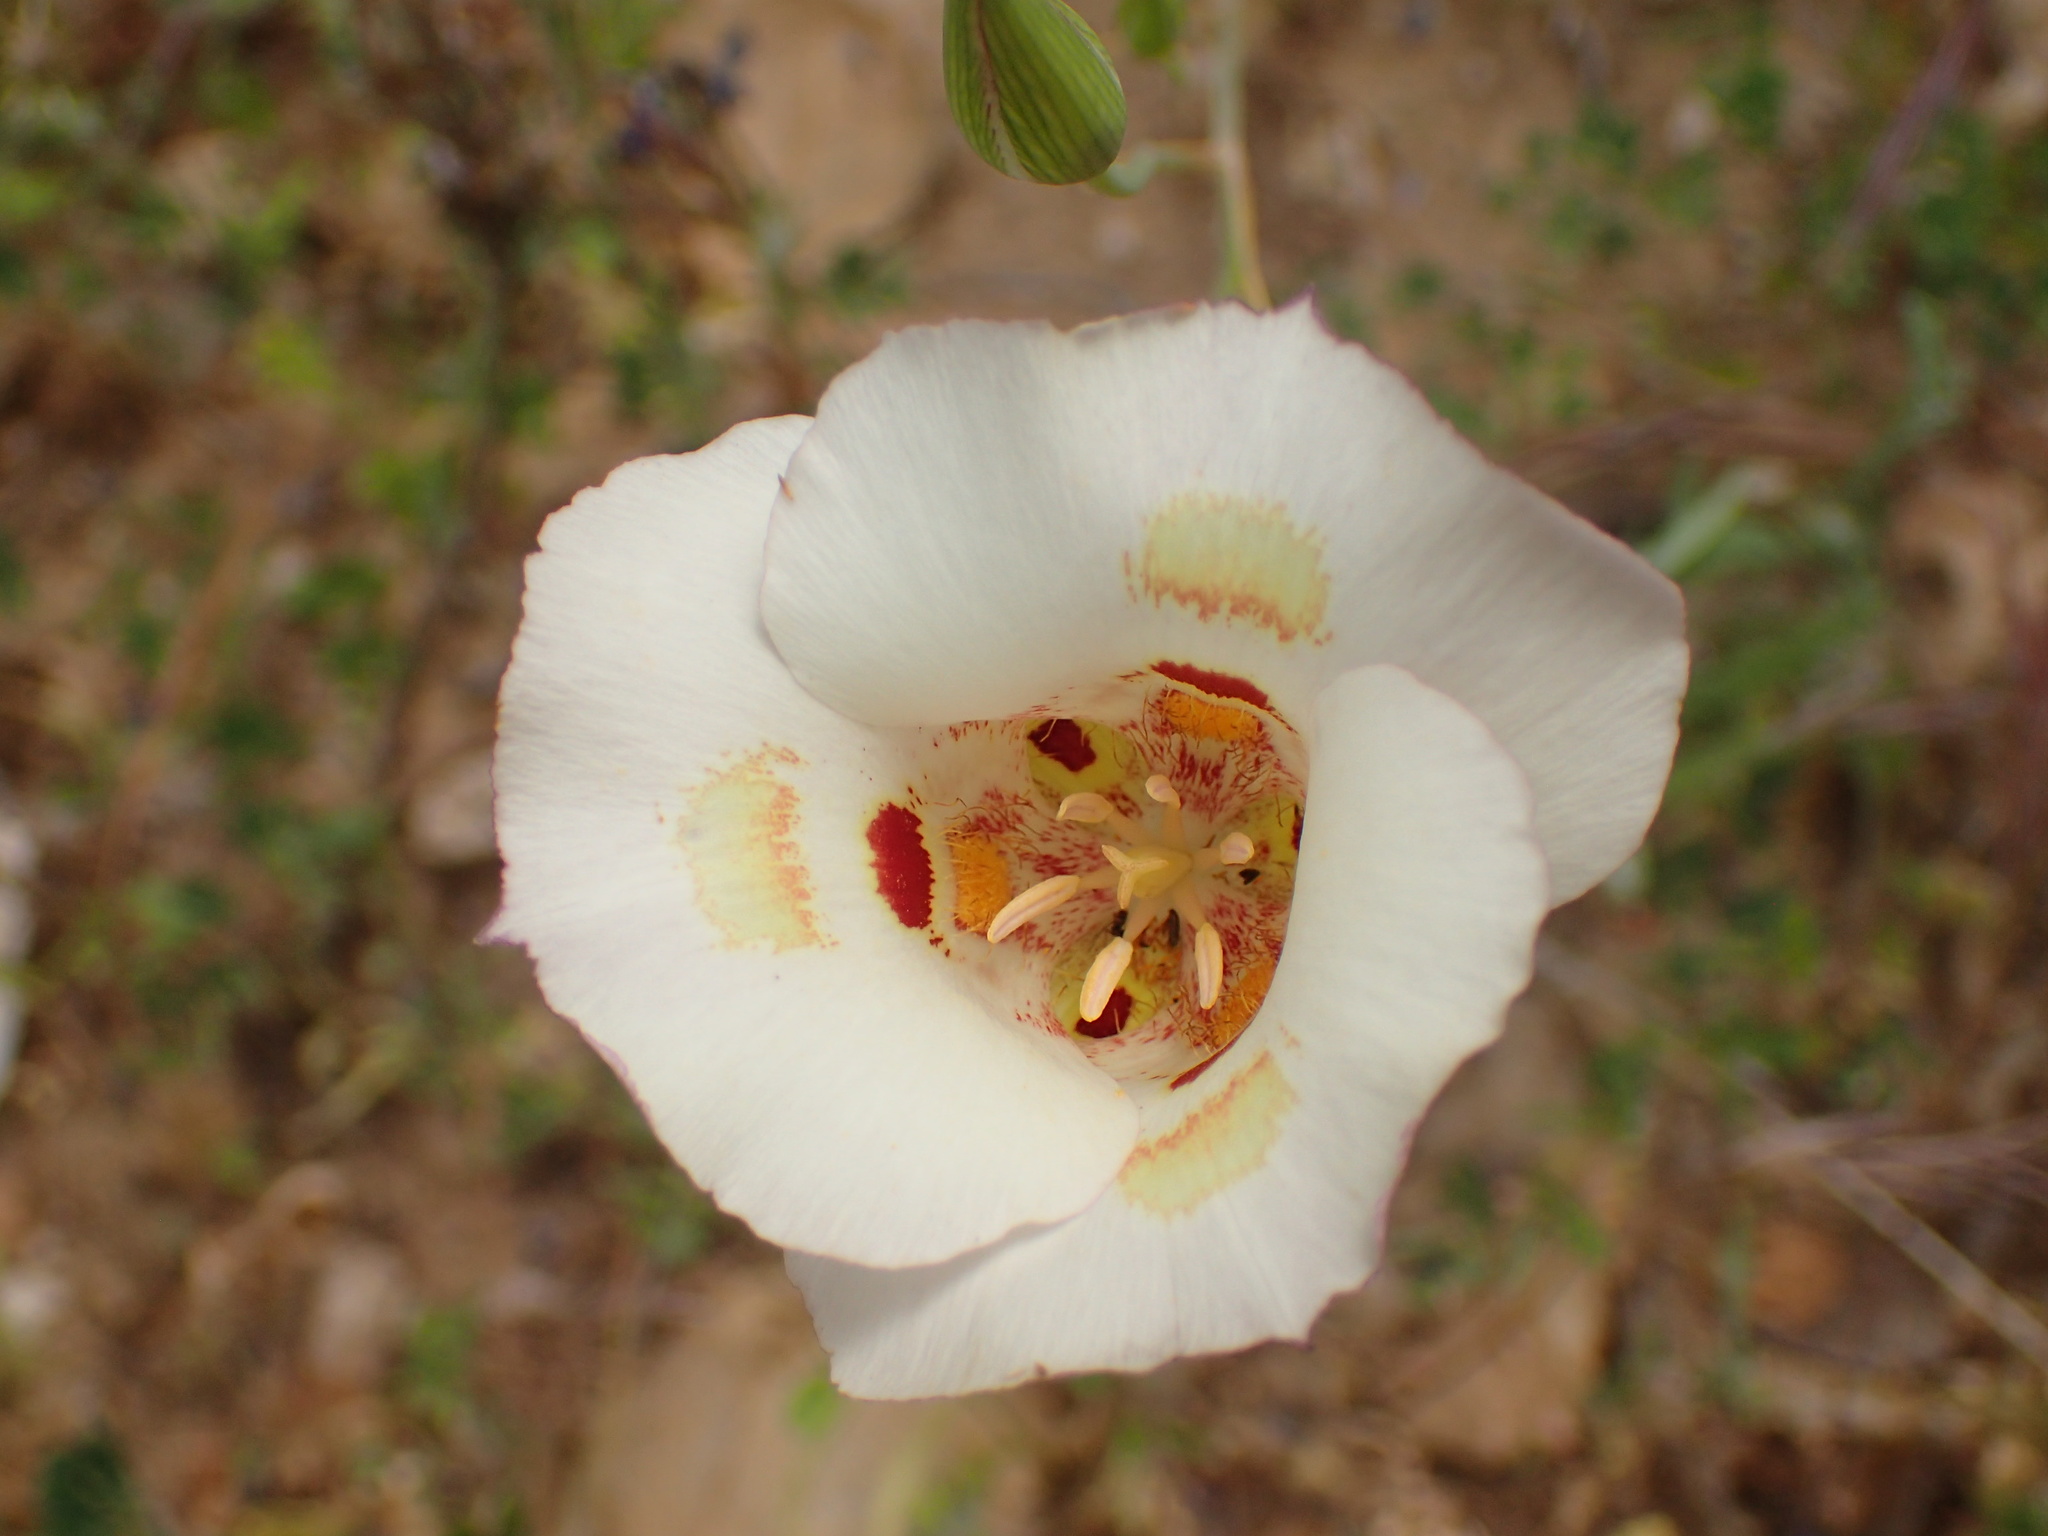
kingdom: Plantae
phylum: Tracheophyta
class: Liliopsida
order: Liliales
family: Liliaceae
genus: Calochortus
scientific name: Calochortus venustus
